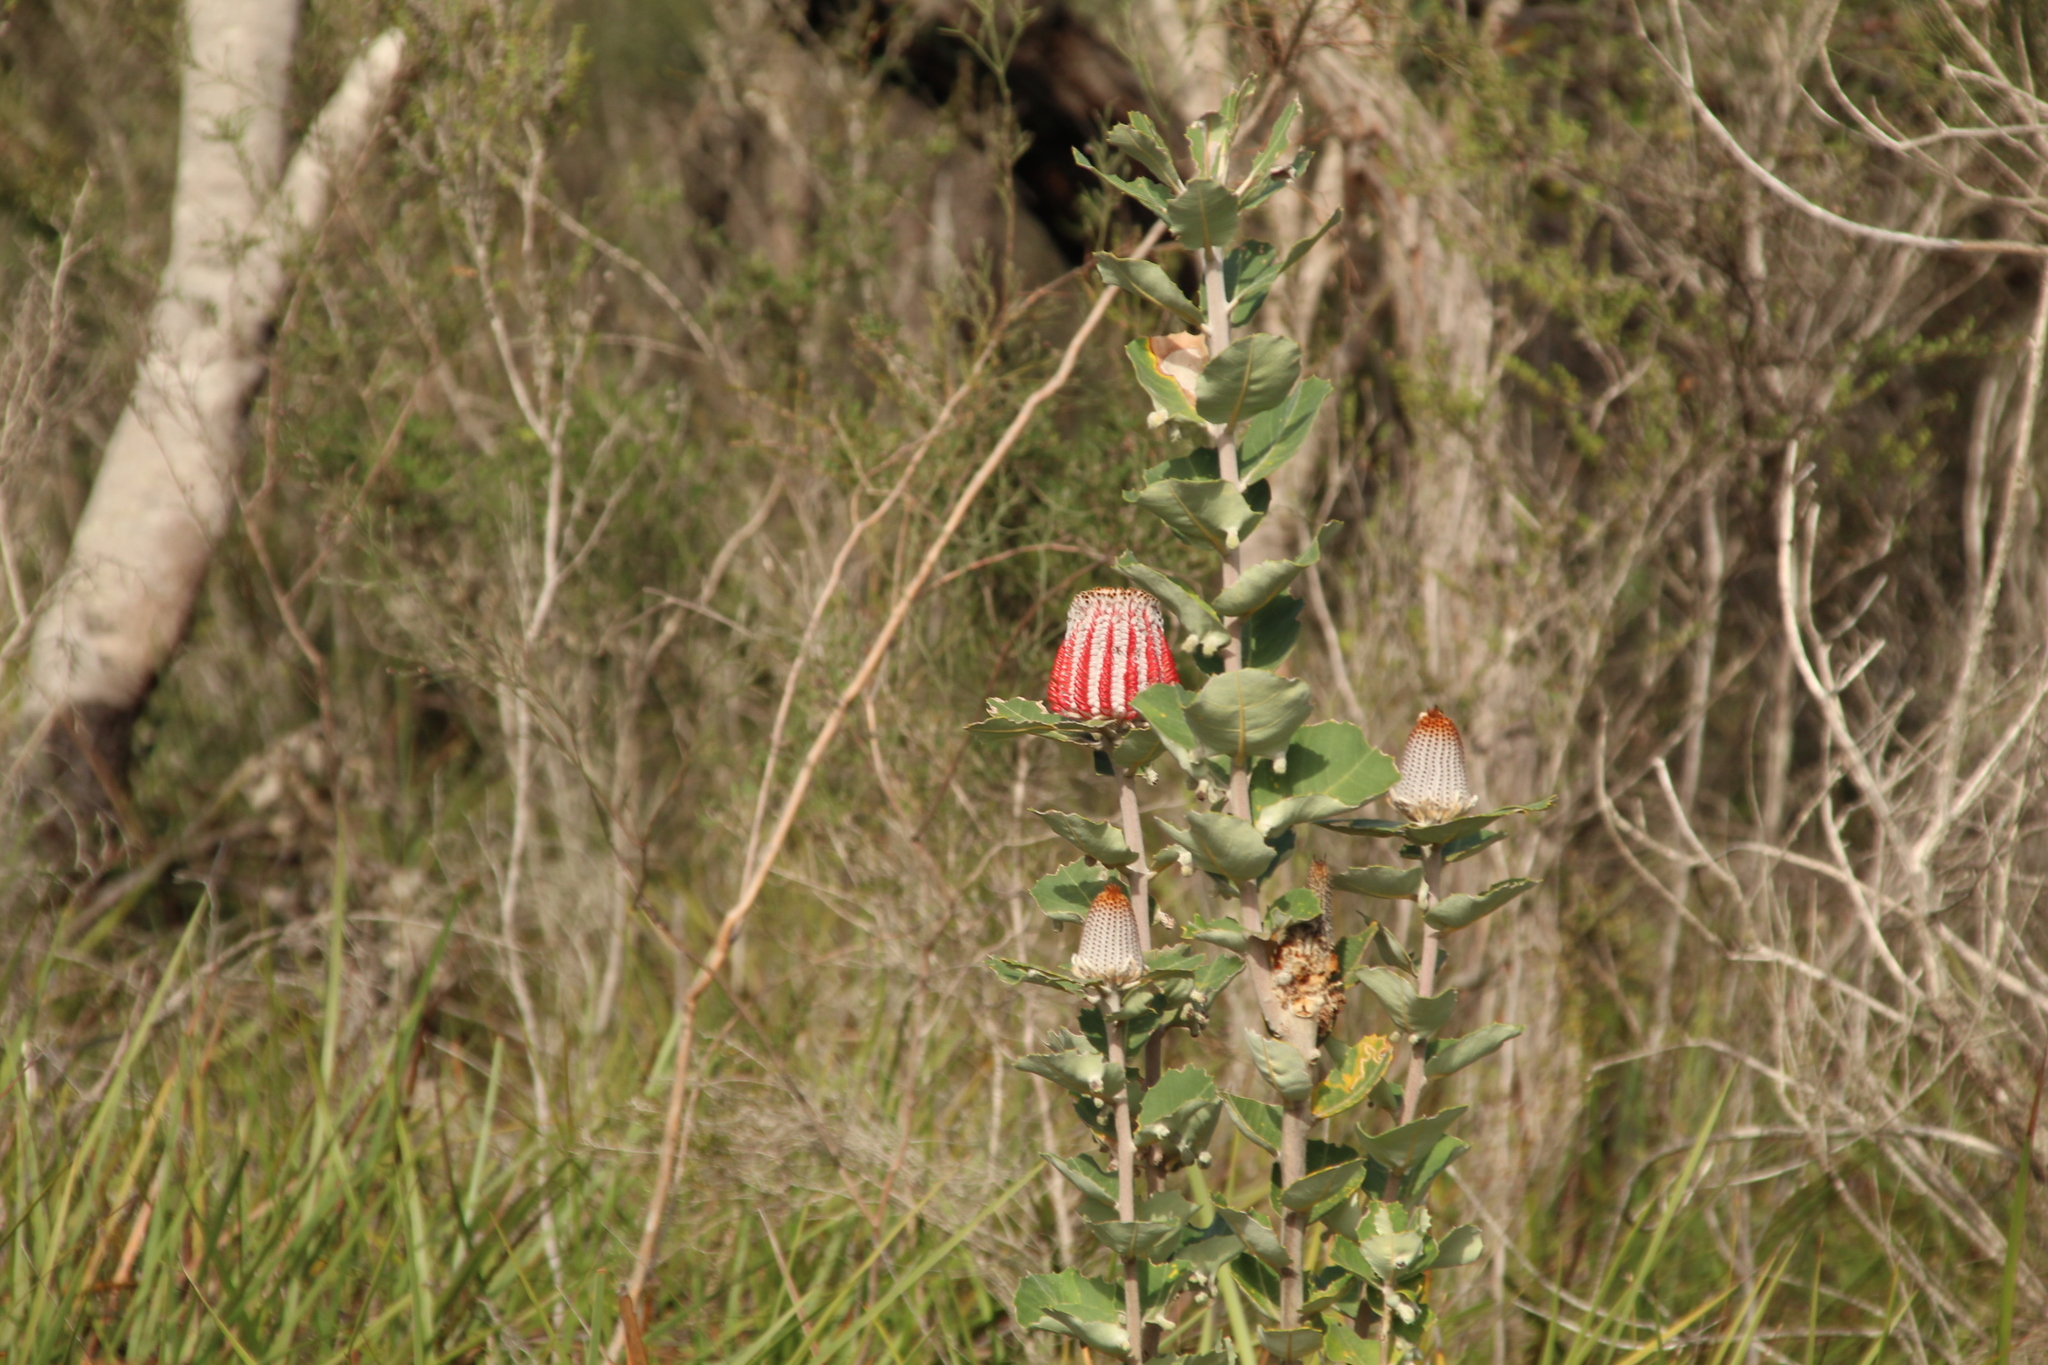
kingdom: Plantae
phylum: Tracheophyta
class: Magnoliopsida
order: Proteales
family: Proteaceae
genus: Banksia
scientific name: Banksia coccinea
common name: Scarlet banksia
